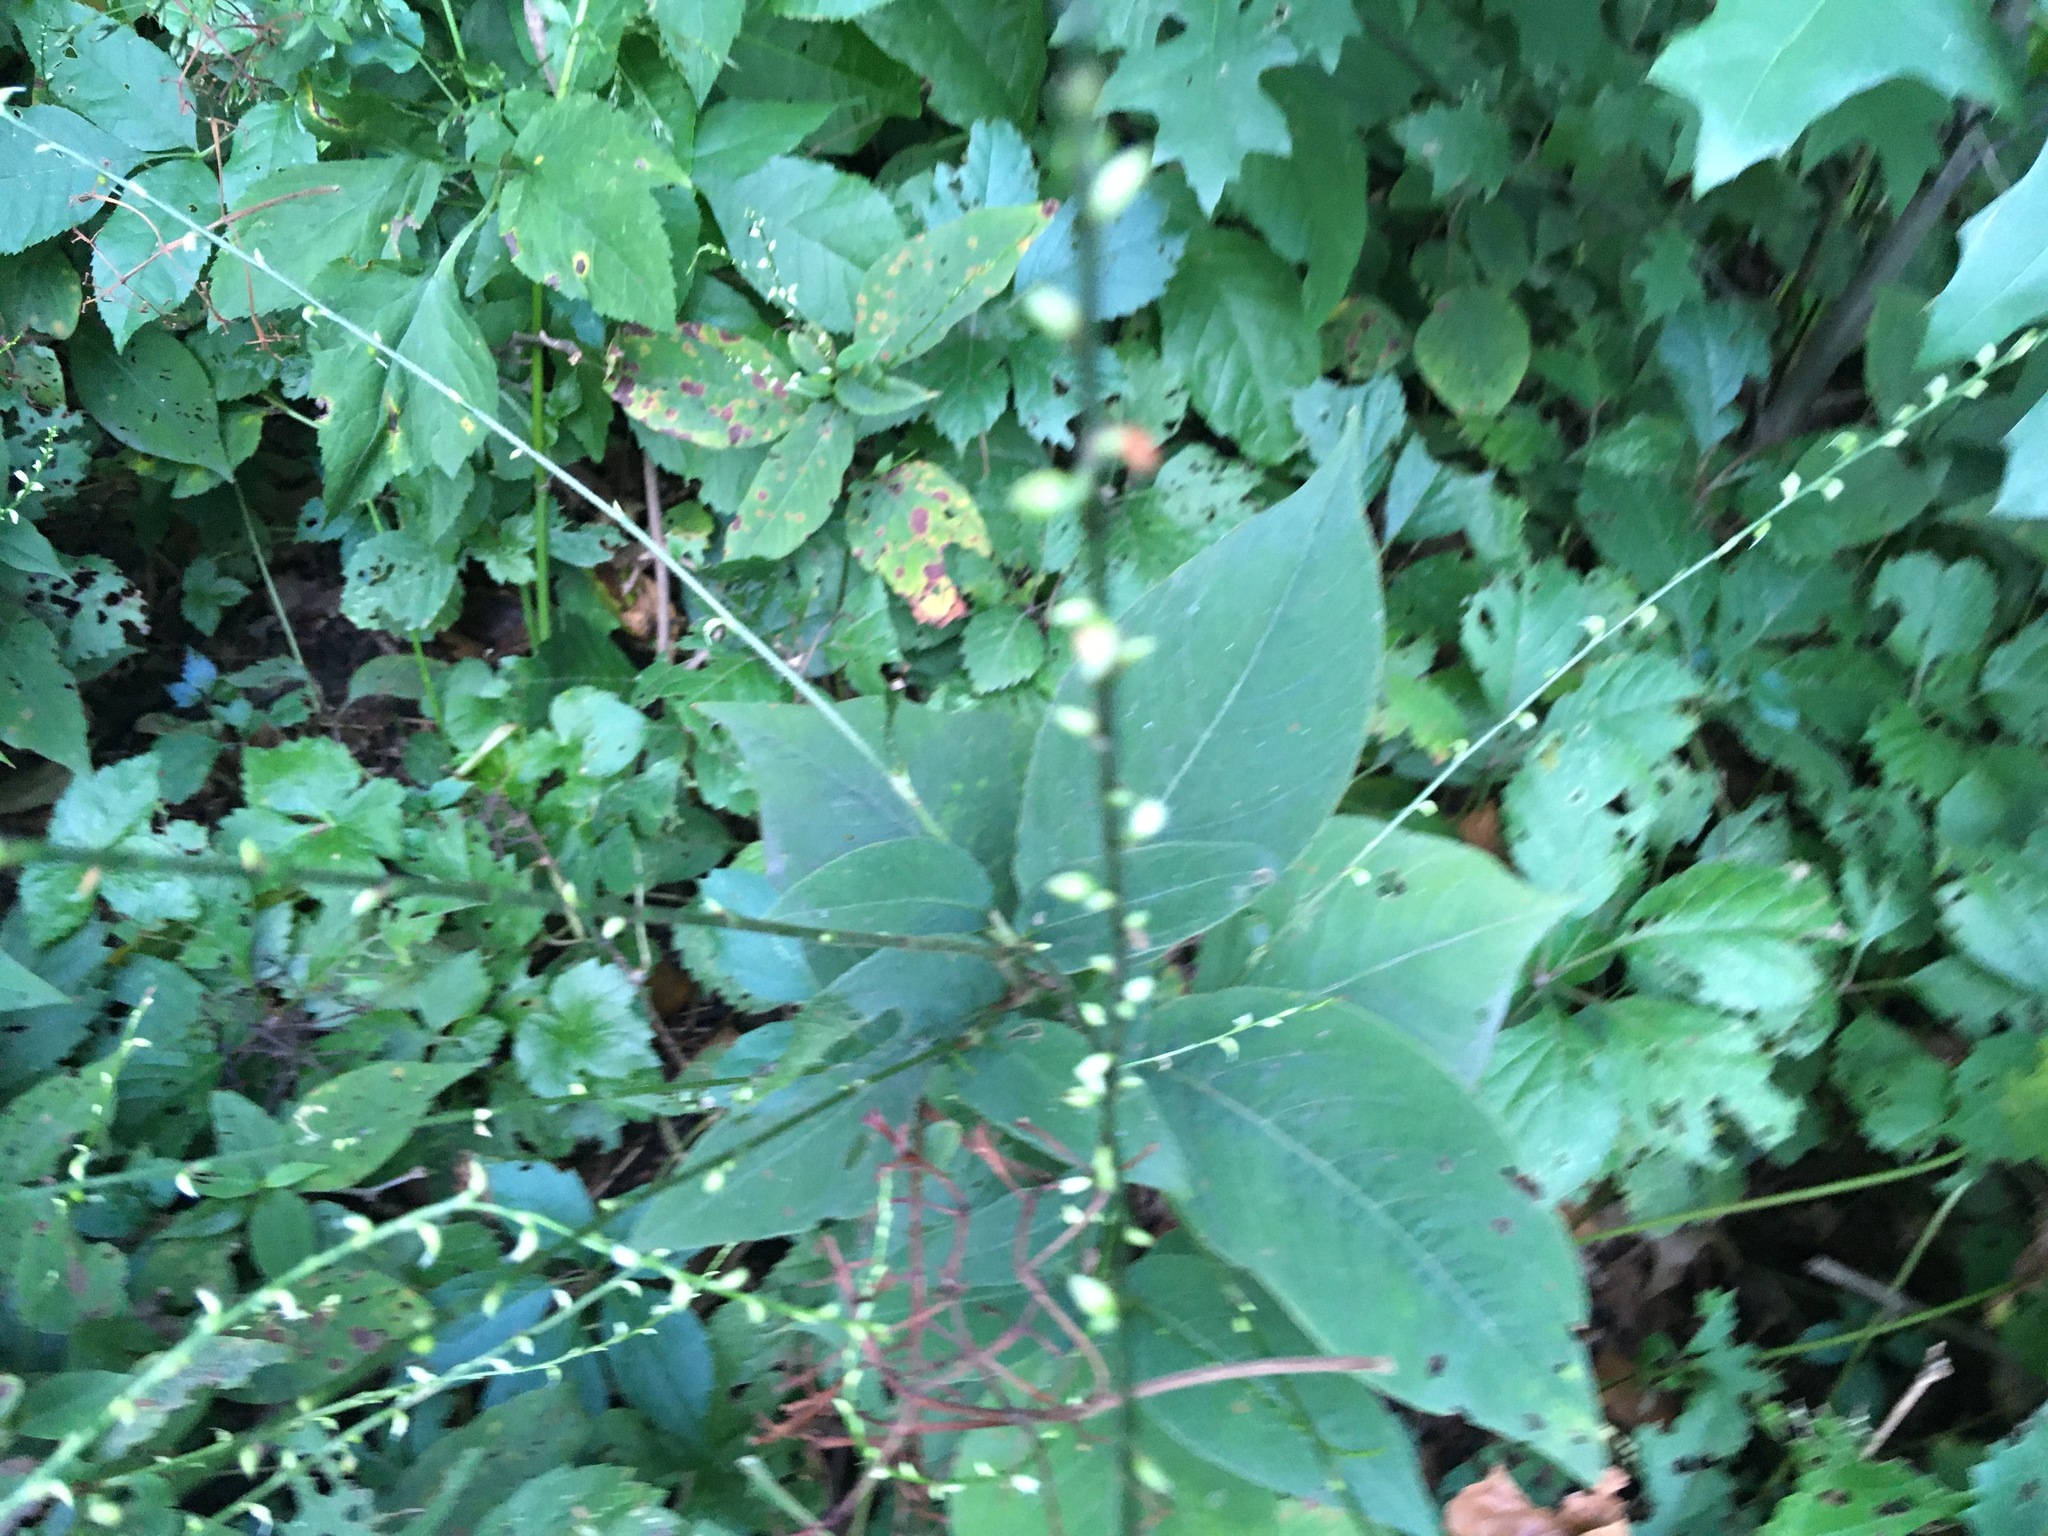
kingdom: Plantae
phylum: Tracheophyta
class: Magnoliopsida
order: Caryophyllales
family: Polygonaceae
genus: Persicaria
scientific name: Persicaria virginiana
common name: Jumpseed
